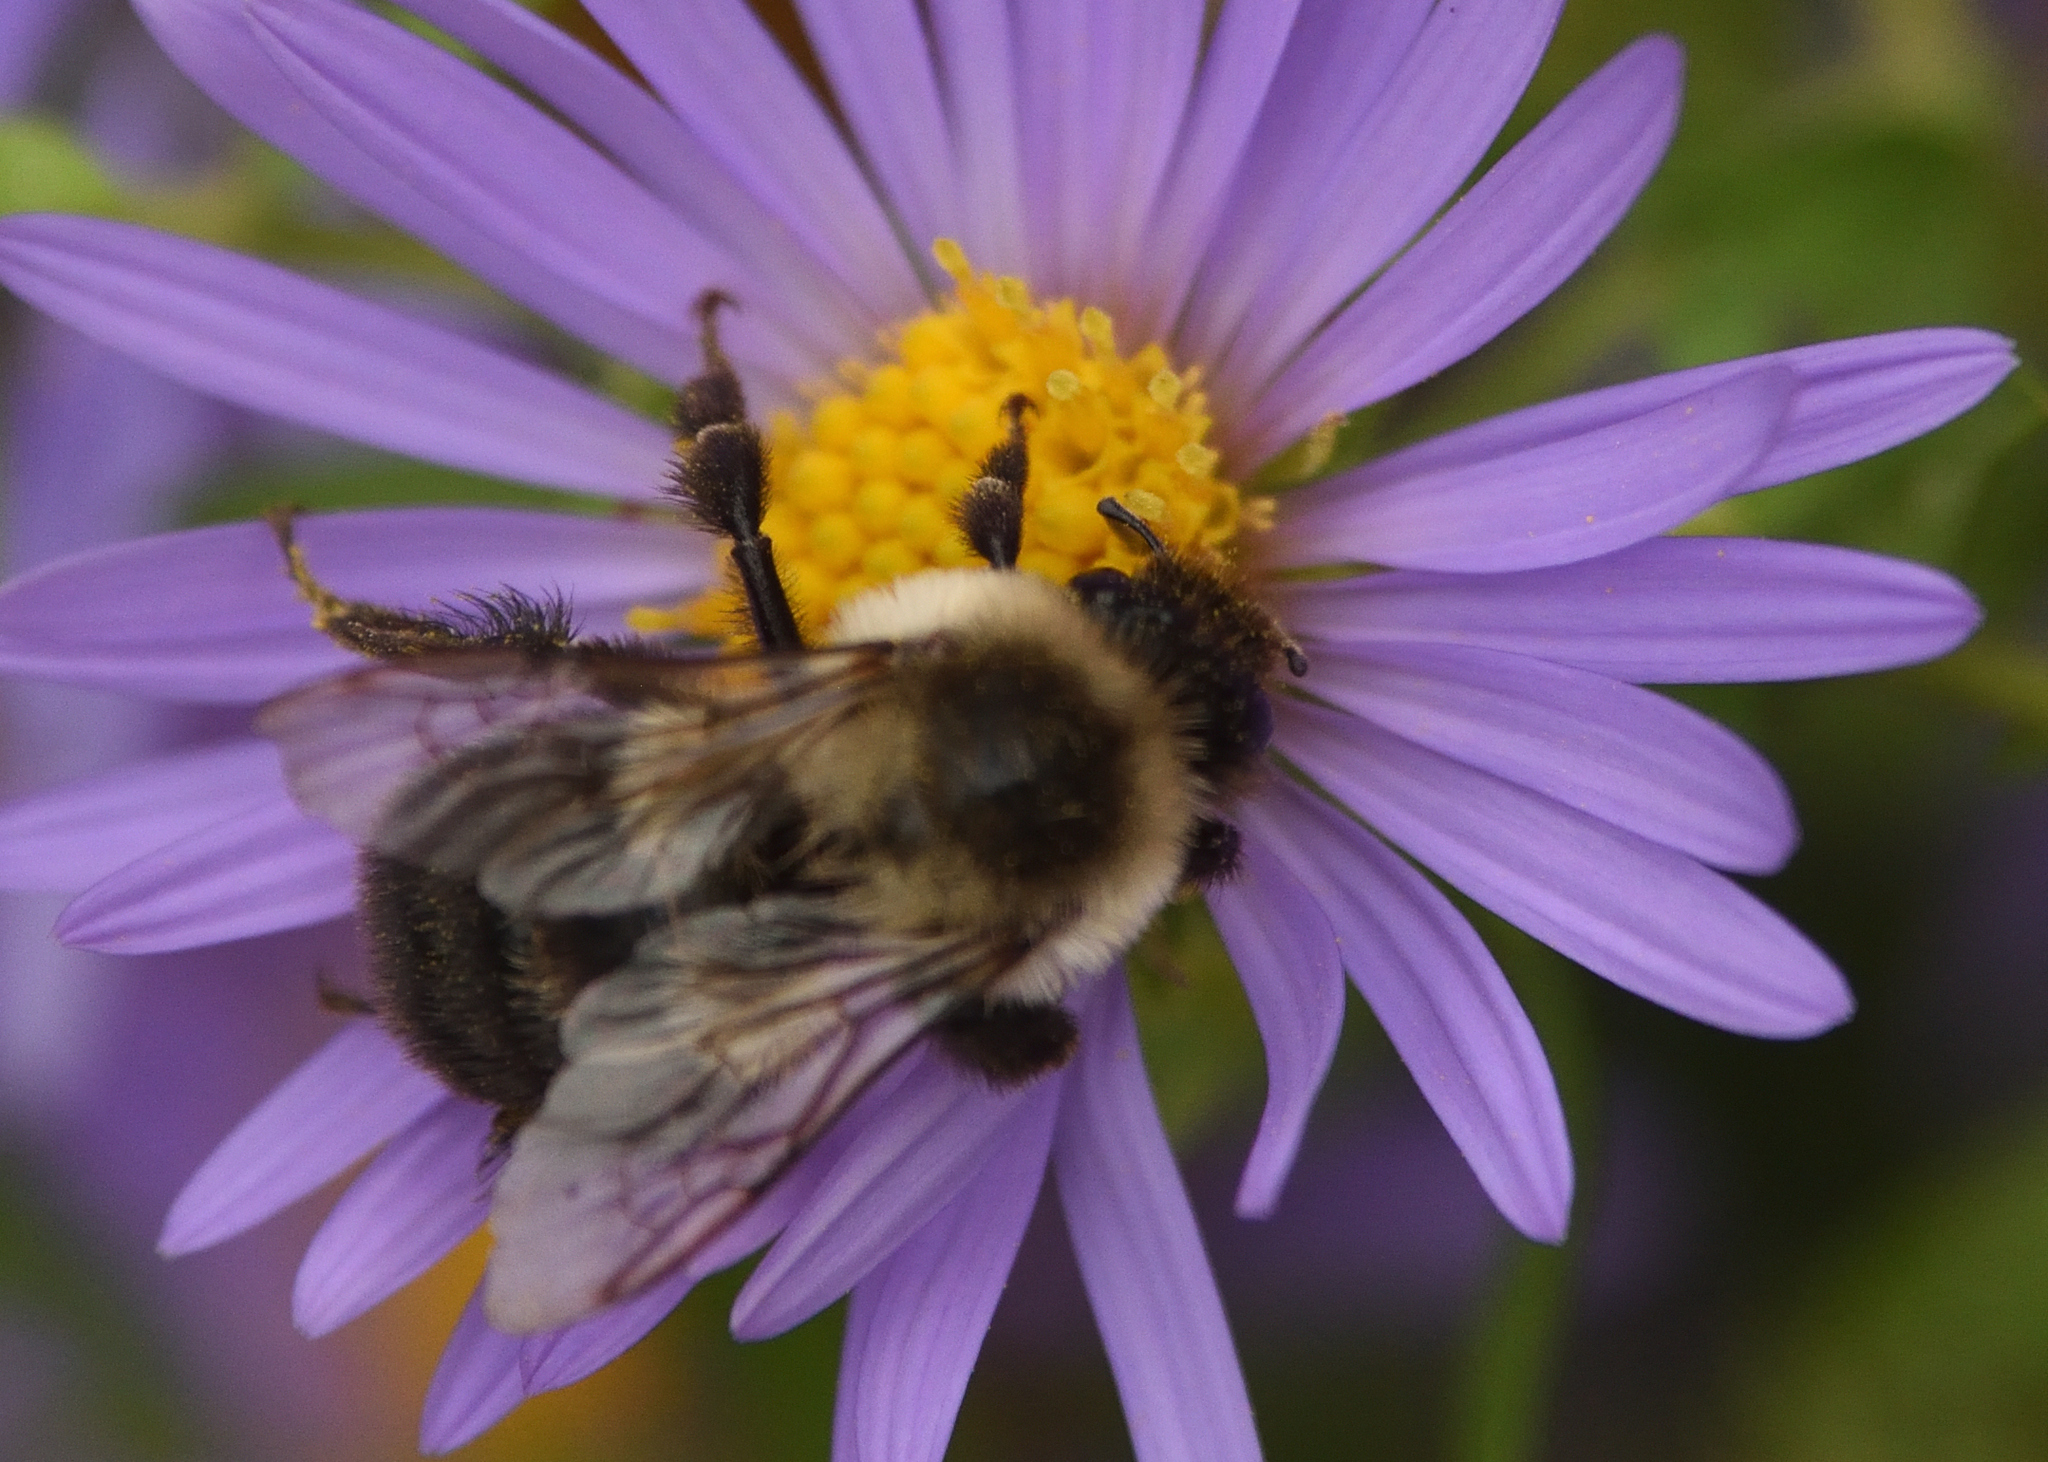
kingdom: Animalia
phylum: Arthropoda
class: Insecta
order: Hymenoptera
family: Apidae
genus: Bombus
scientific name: Bombus impatiens
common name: Common eastern bumble bee
